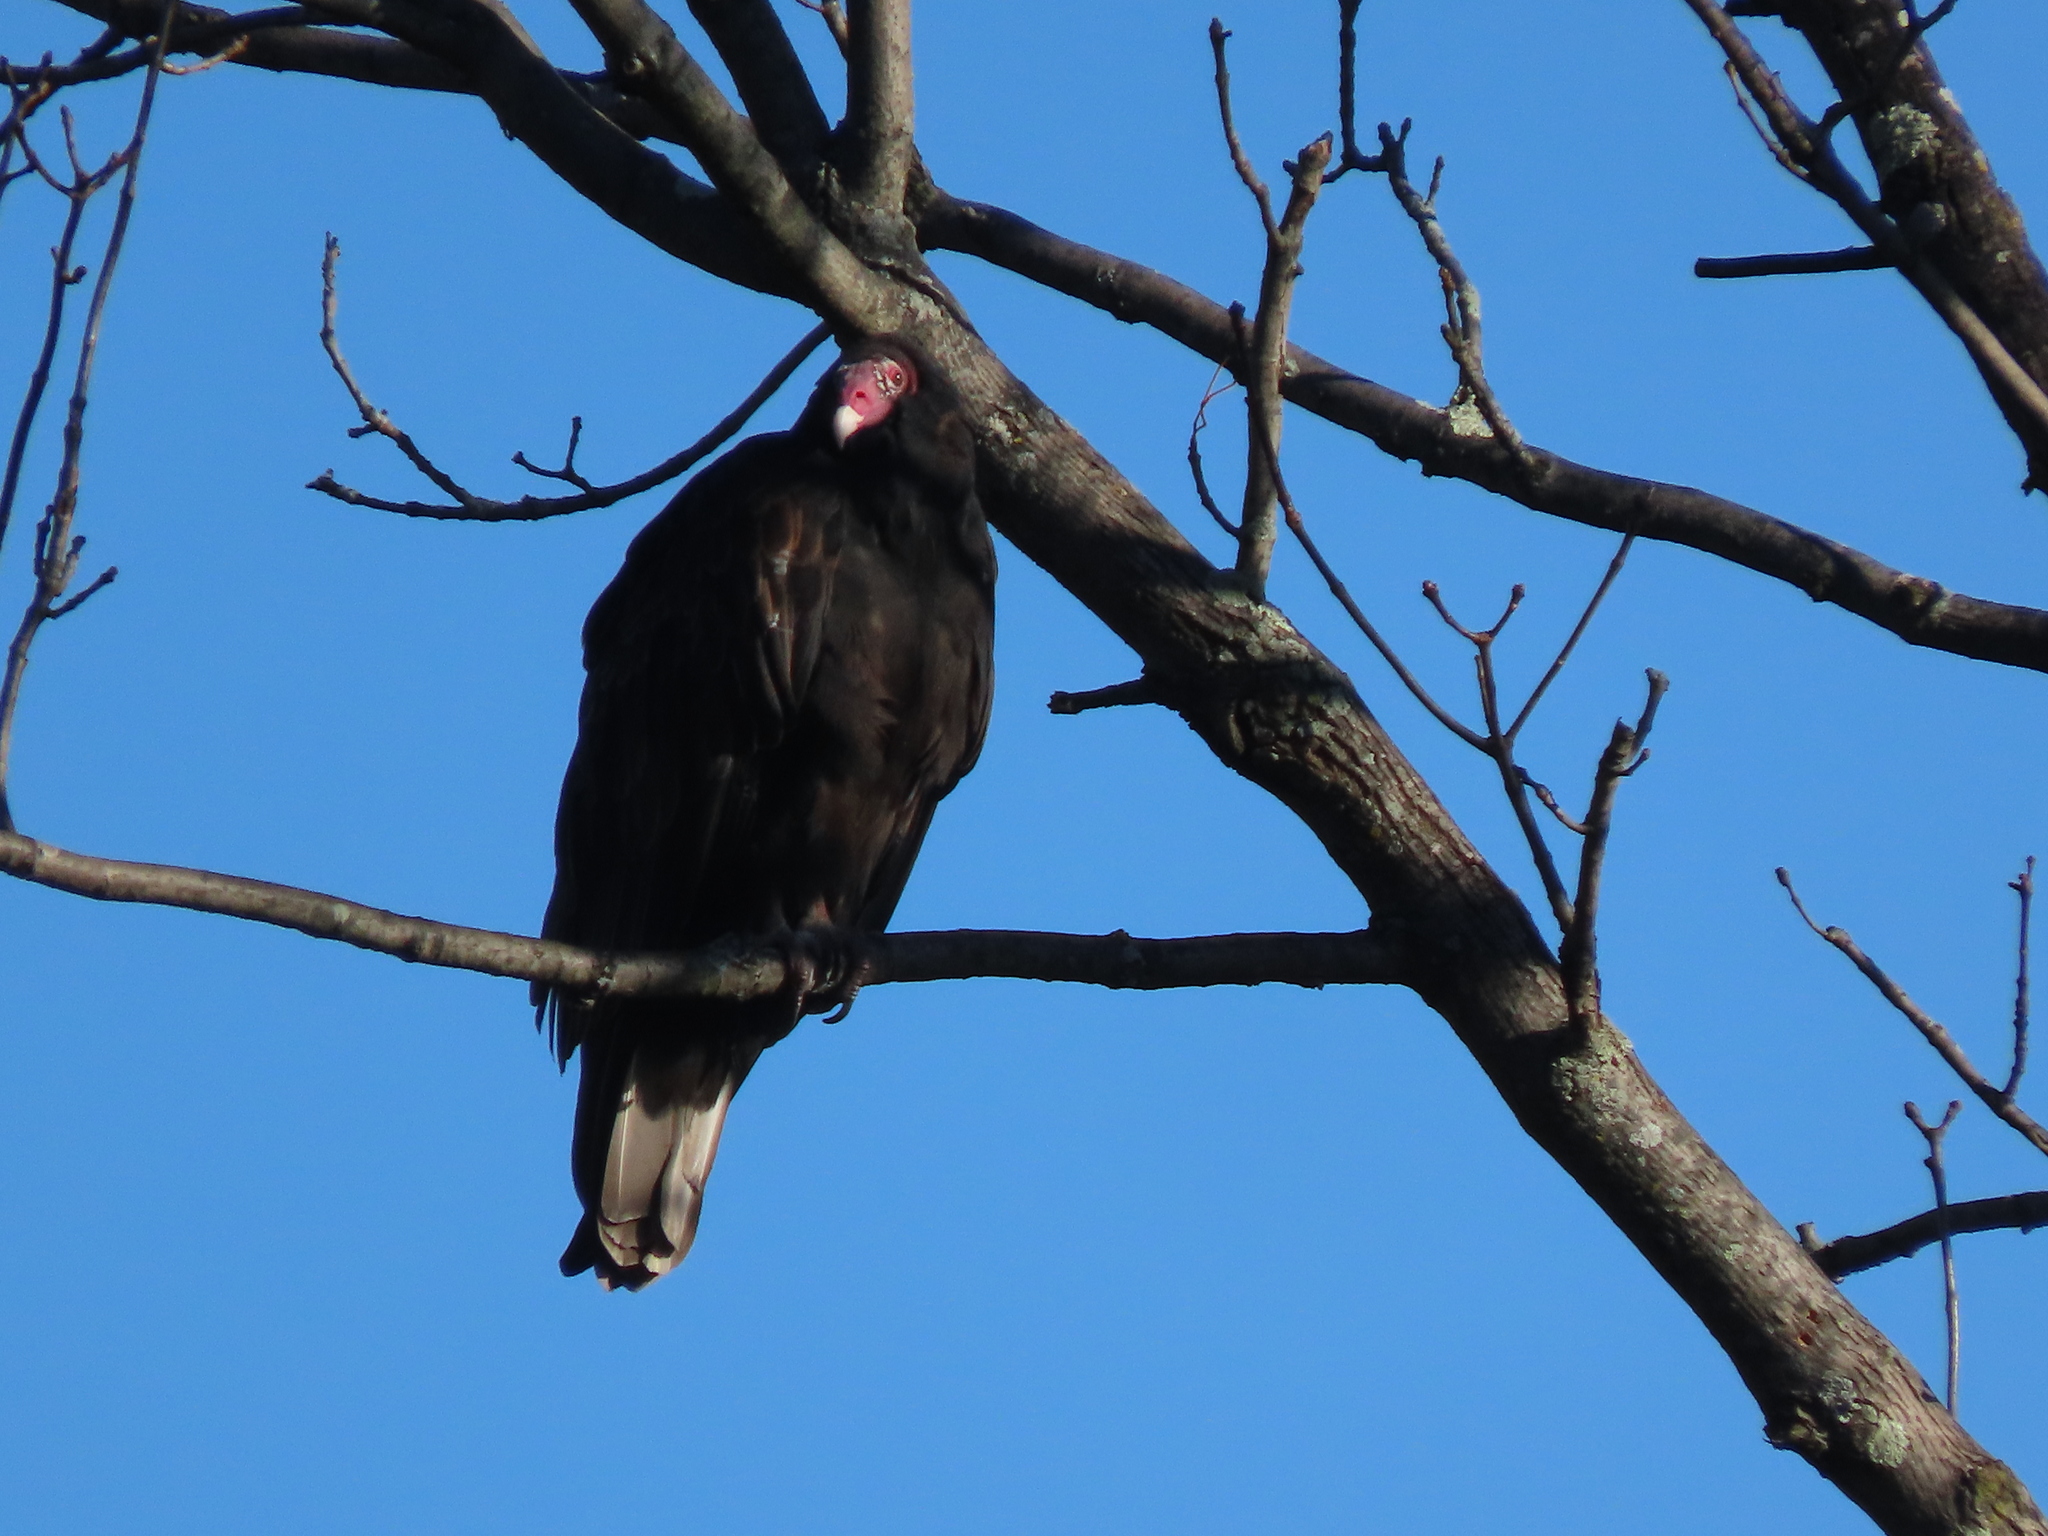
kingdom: Animalia
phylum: Chordata
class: Aves
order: Accipitriformes
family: Cathartidae
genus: Cathartes
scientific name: Cathartes aura
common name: Turkey vulture
